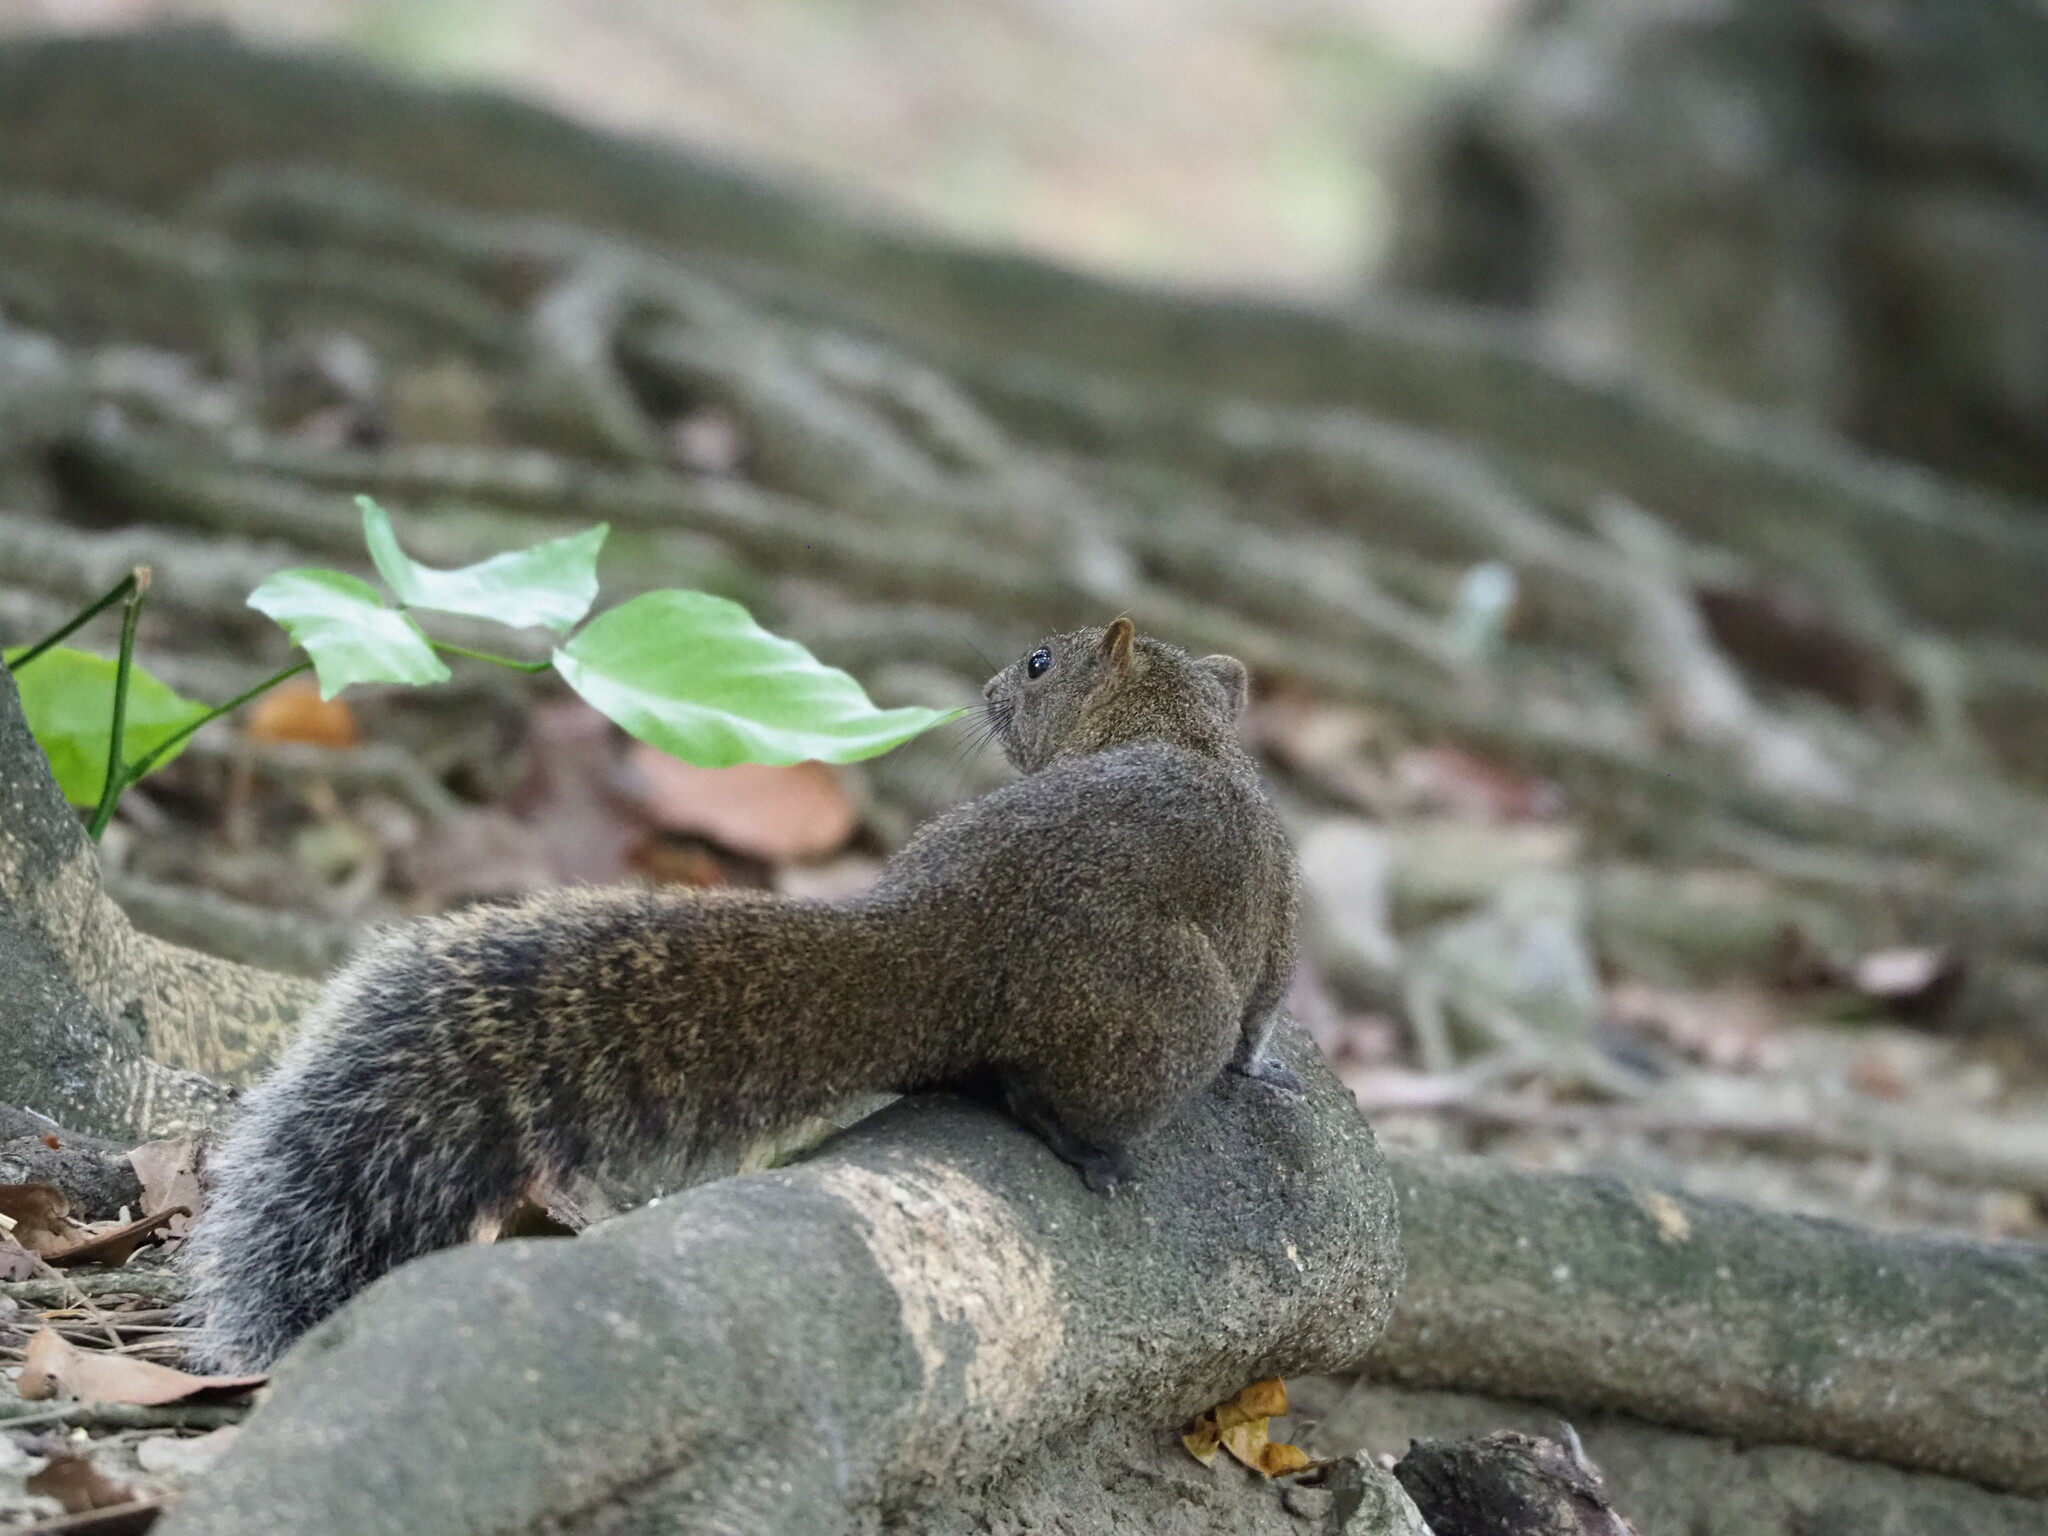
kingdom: Animalia
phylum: Chordata
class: Mammalia
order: Rodentia
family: Sciuridae
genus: Callosciurus
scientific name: Callosciurus erythraeus
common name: Pallas's squirrel
